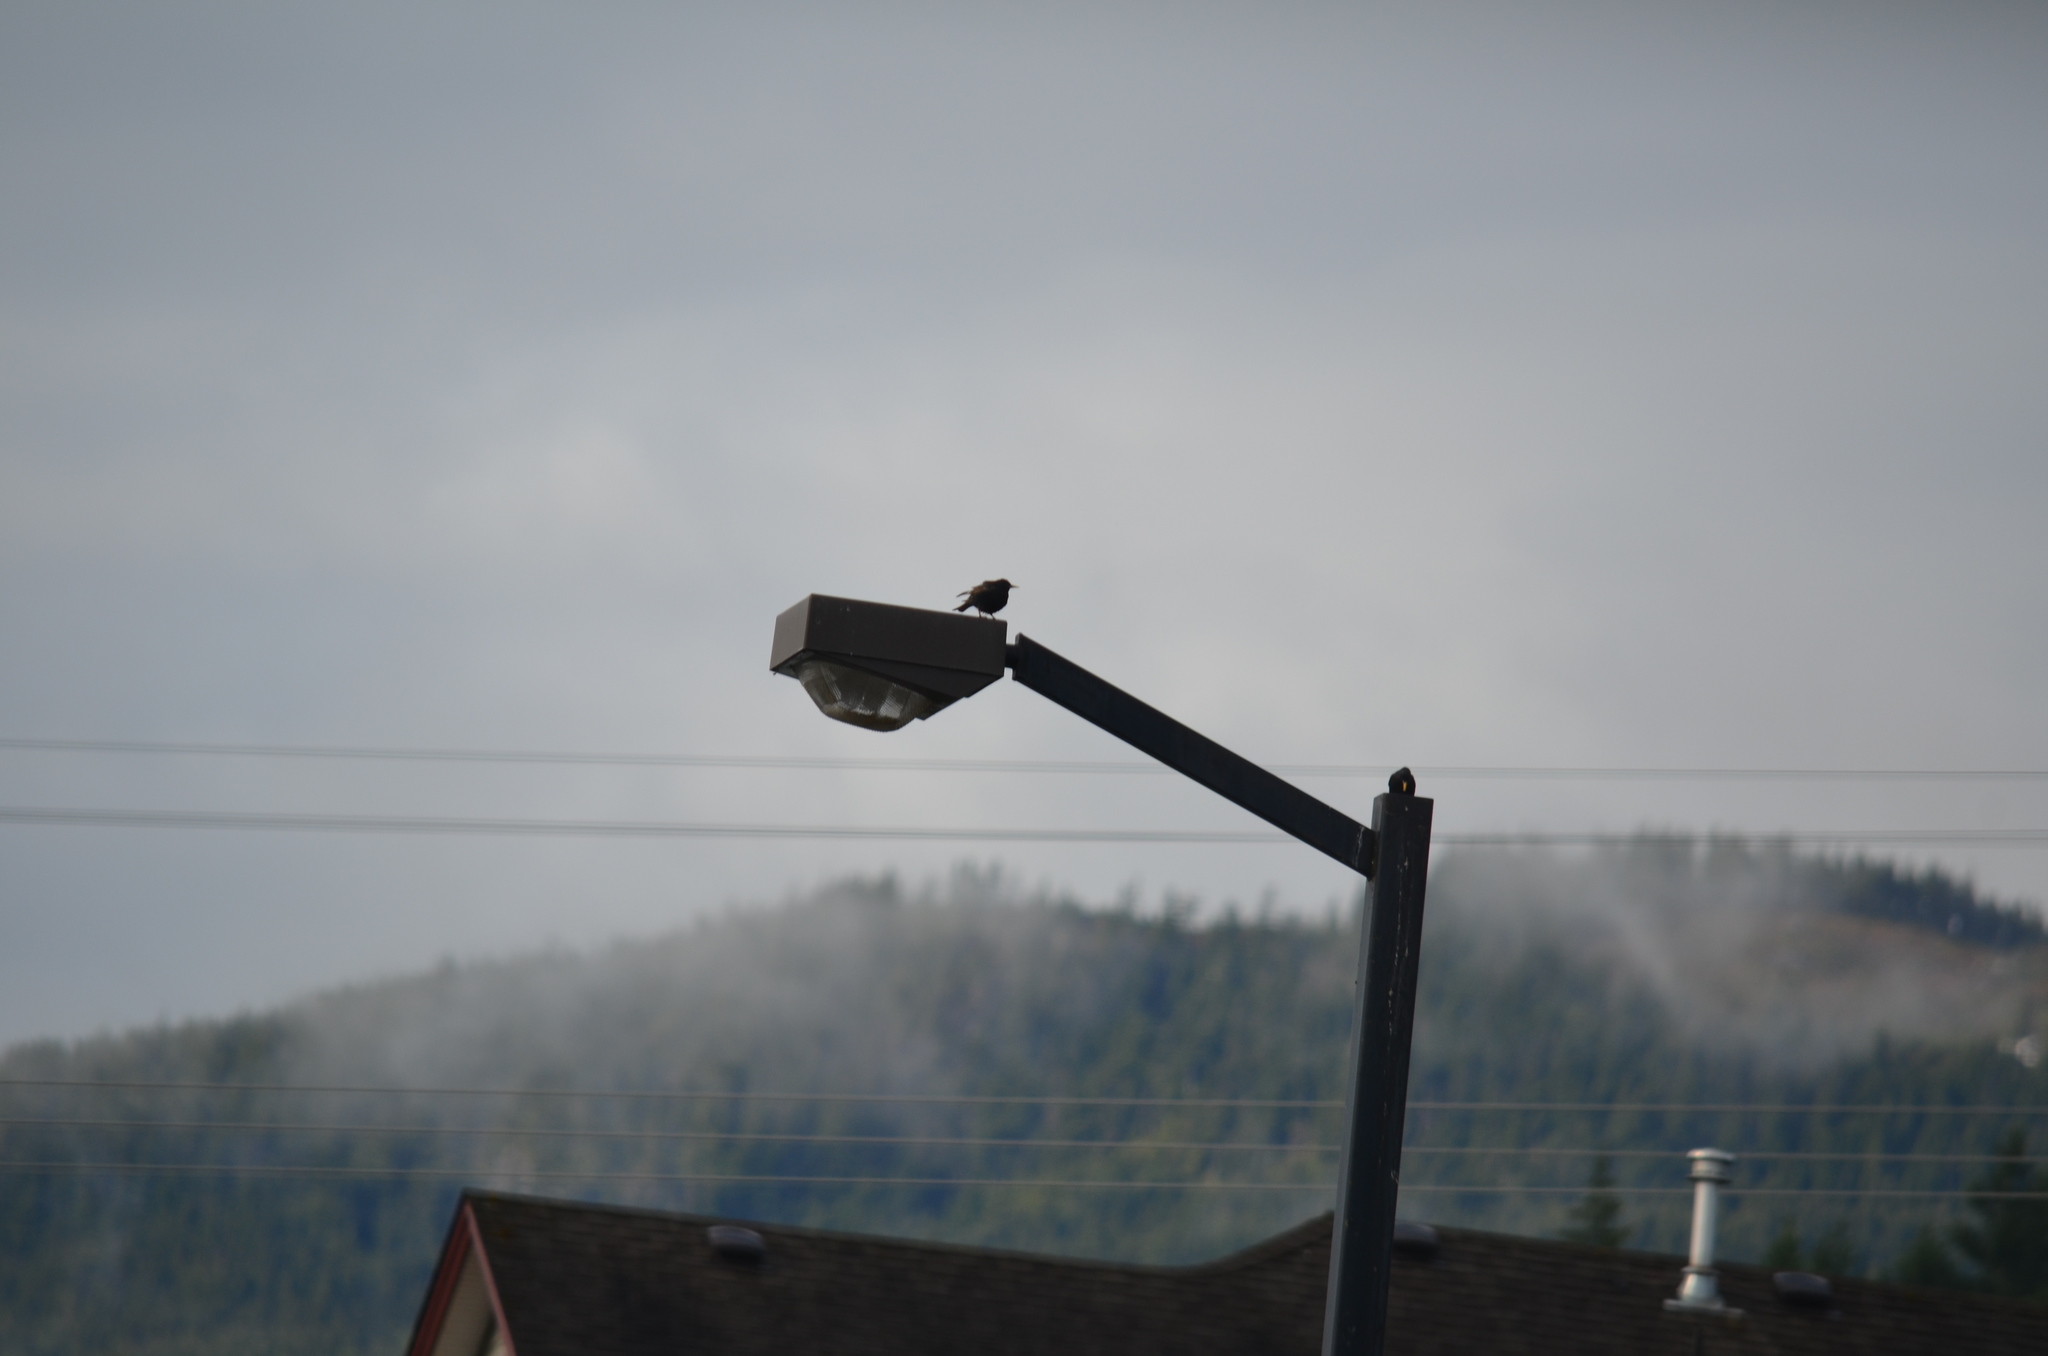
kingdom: Animalia
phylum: Chordata
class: Aves
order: Passeriformes
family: Sturnidae
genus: Sturnus
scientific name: Sturnus vulgaris
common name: Common starling
